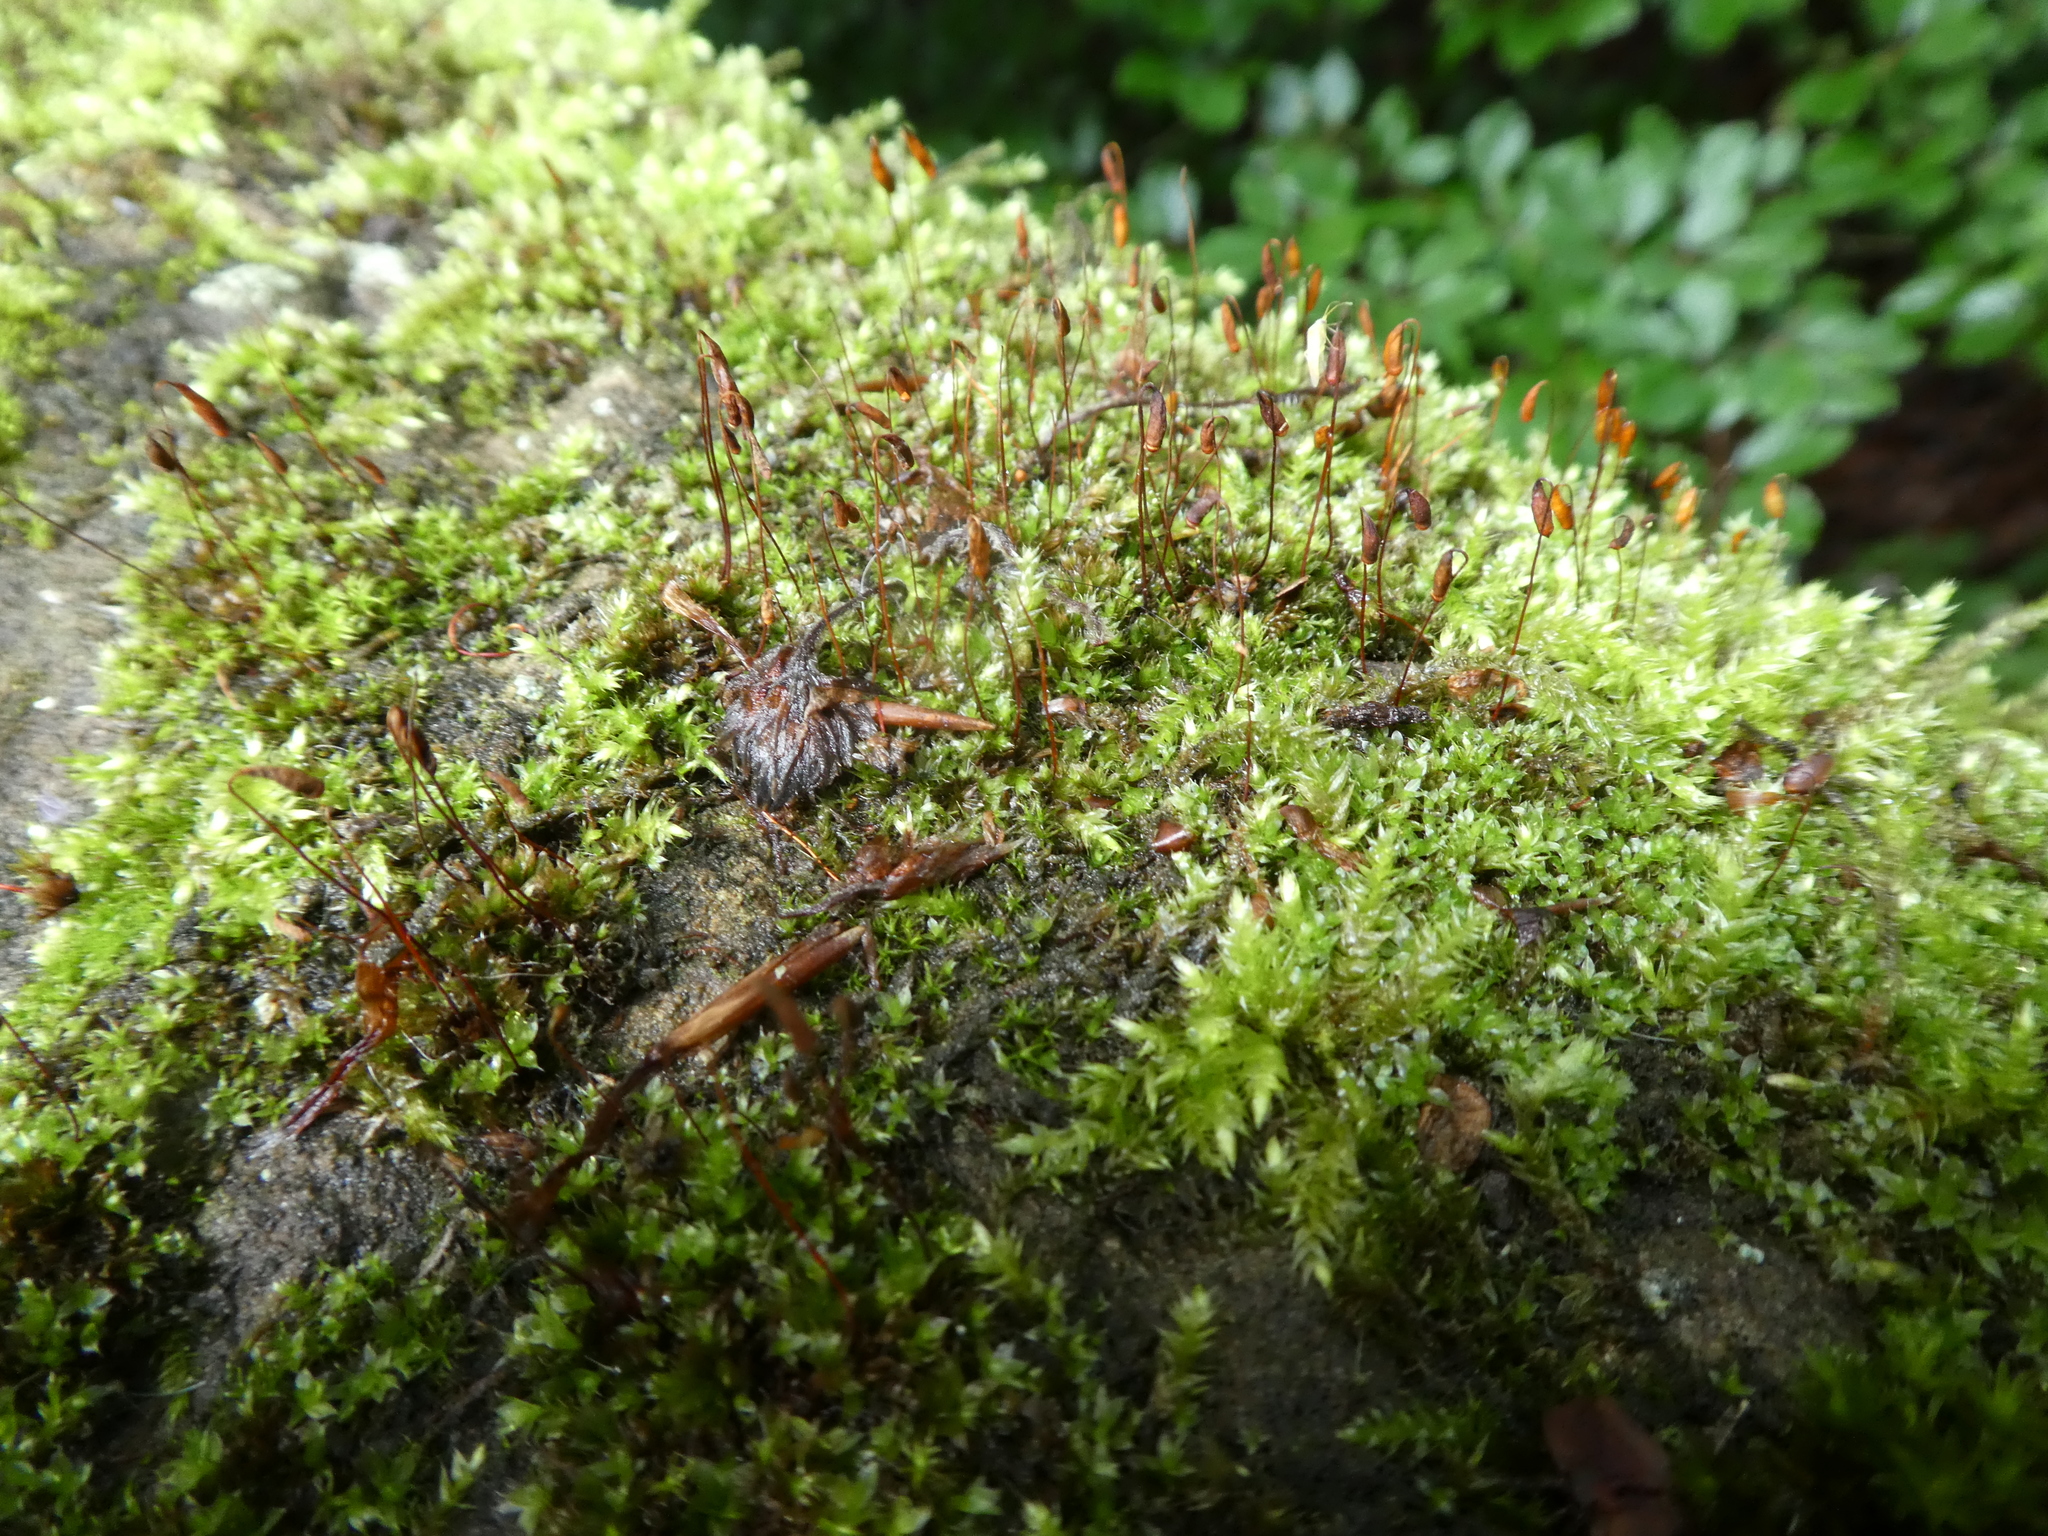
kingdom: Plantae
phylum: Bryophyta
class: Bryopsida
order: Bryales
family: Bryaceae
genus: Rosulabryum
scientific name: Rosulabryum capillare
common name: Capillary thread-moss
